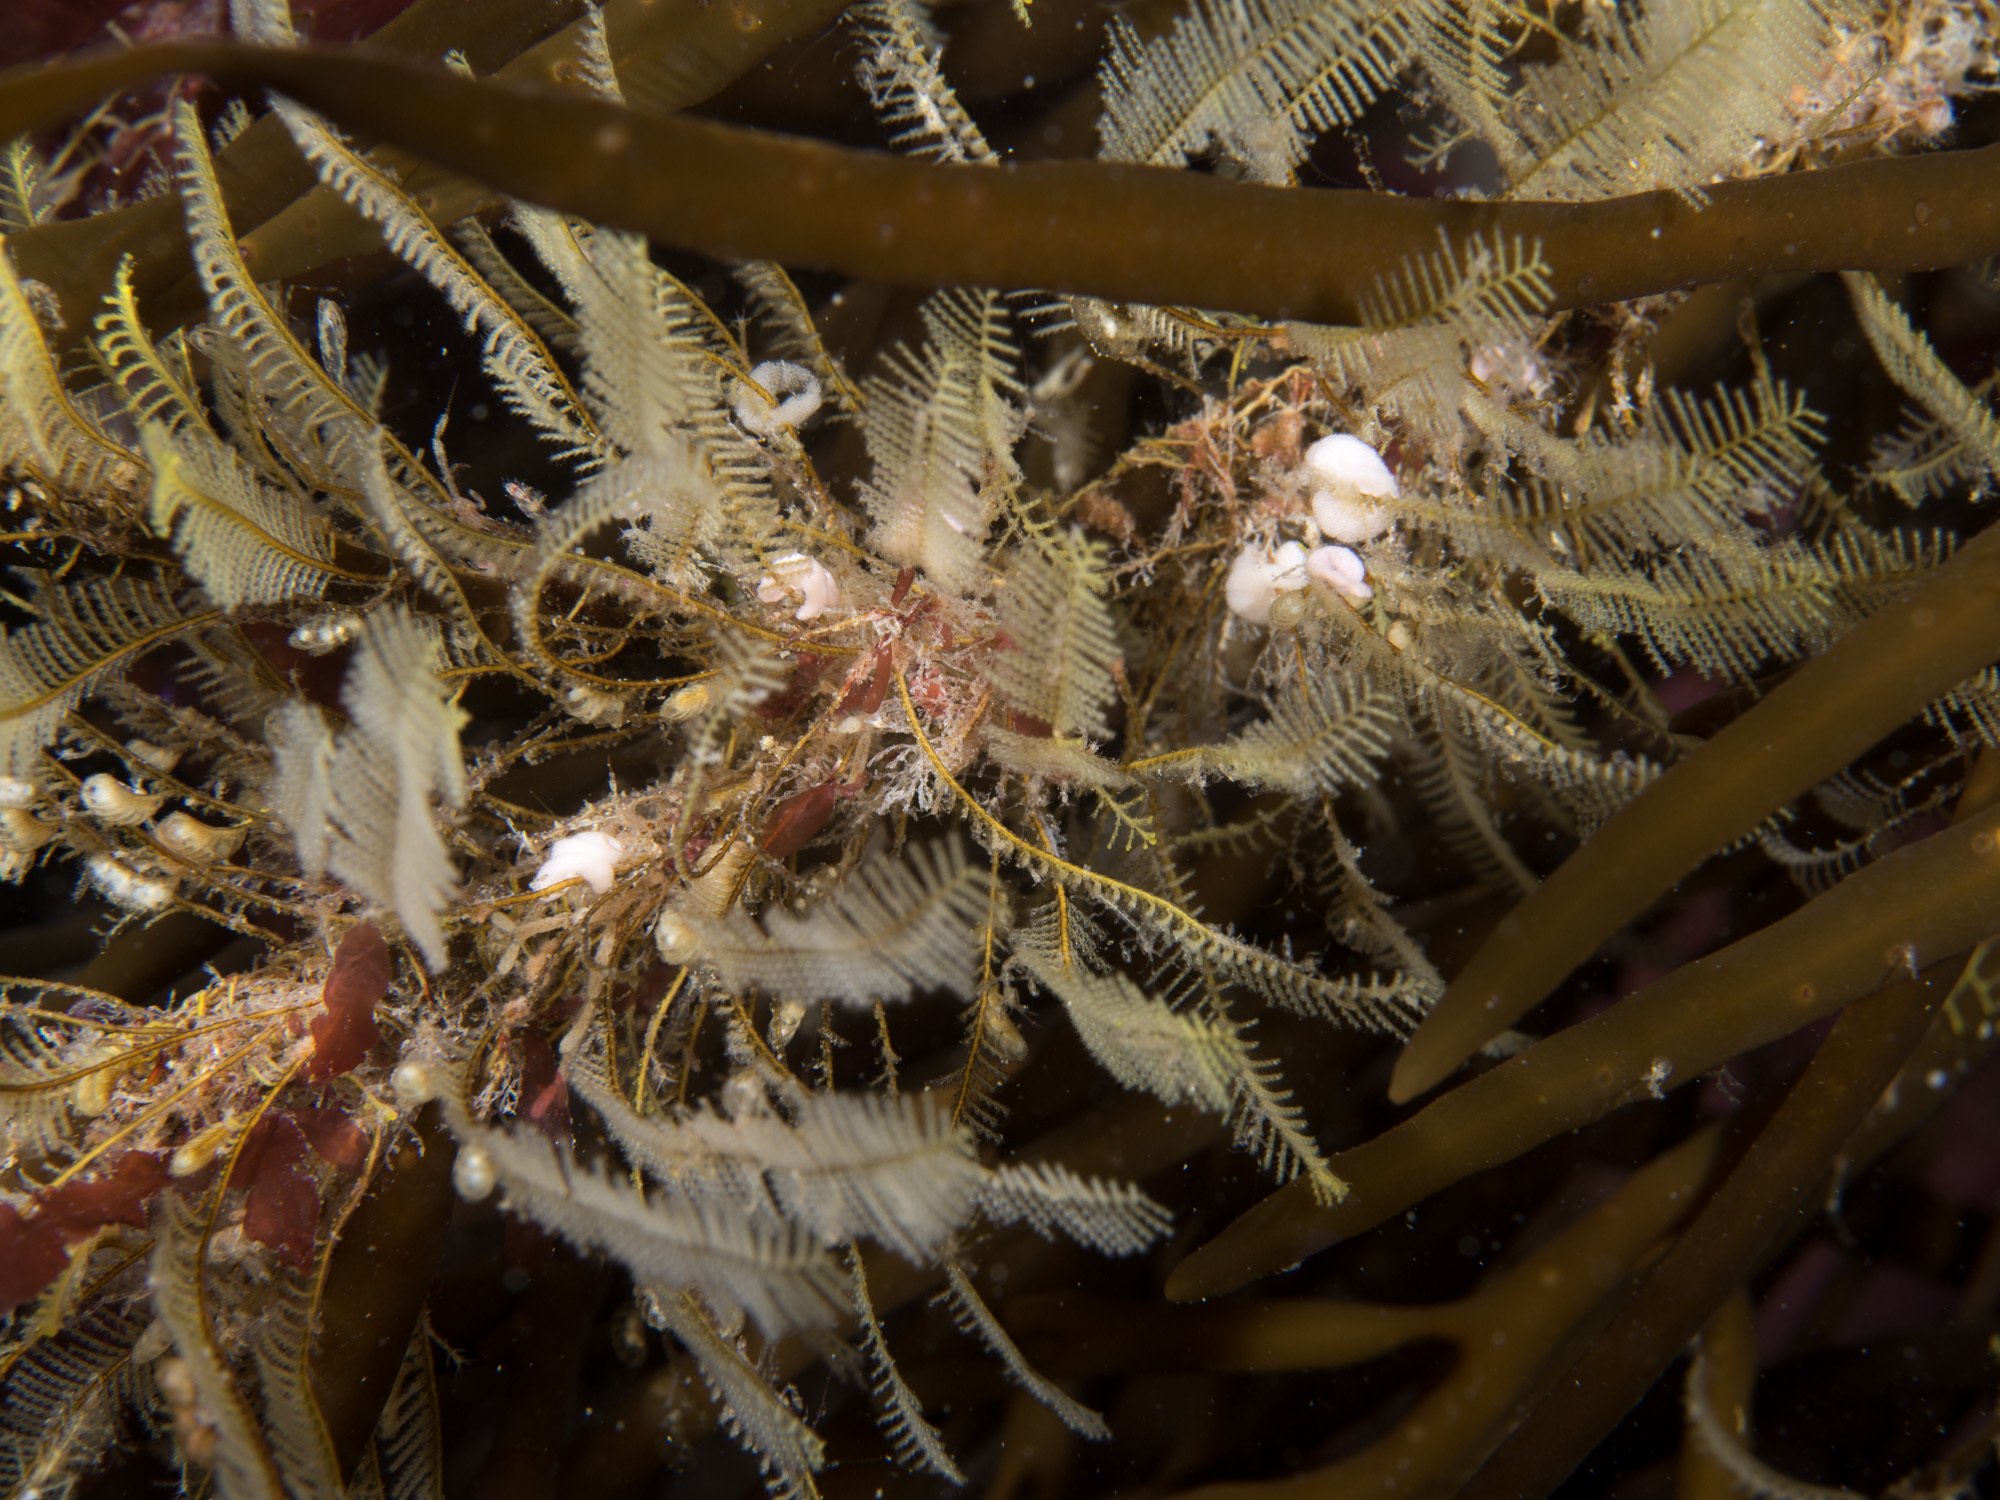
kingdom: Animalia
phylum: Mollusca
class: Gastropoda
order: Nudibranchia
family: Dotidae
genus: Doto
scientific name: Doto koenneckeri
